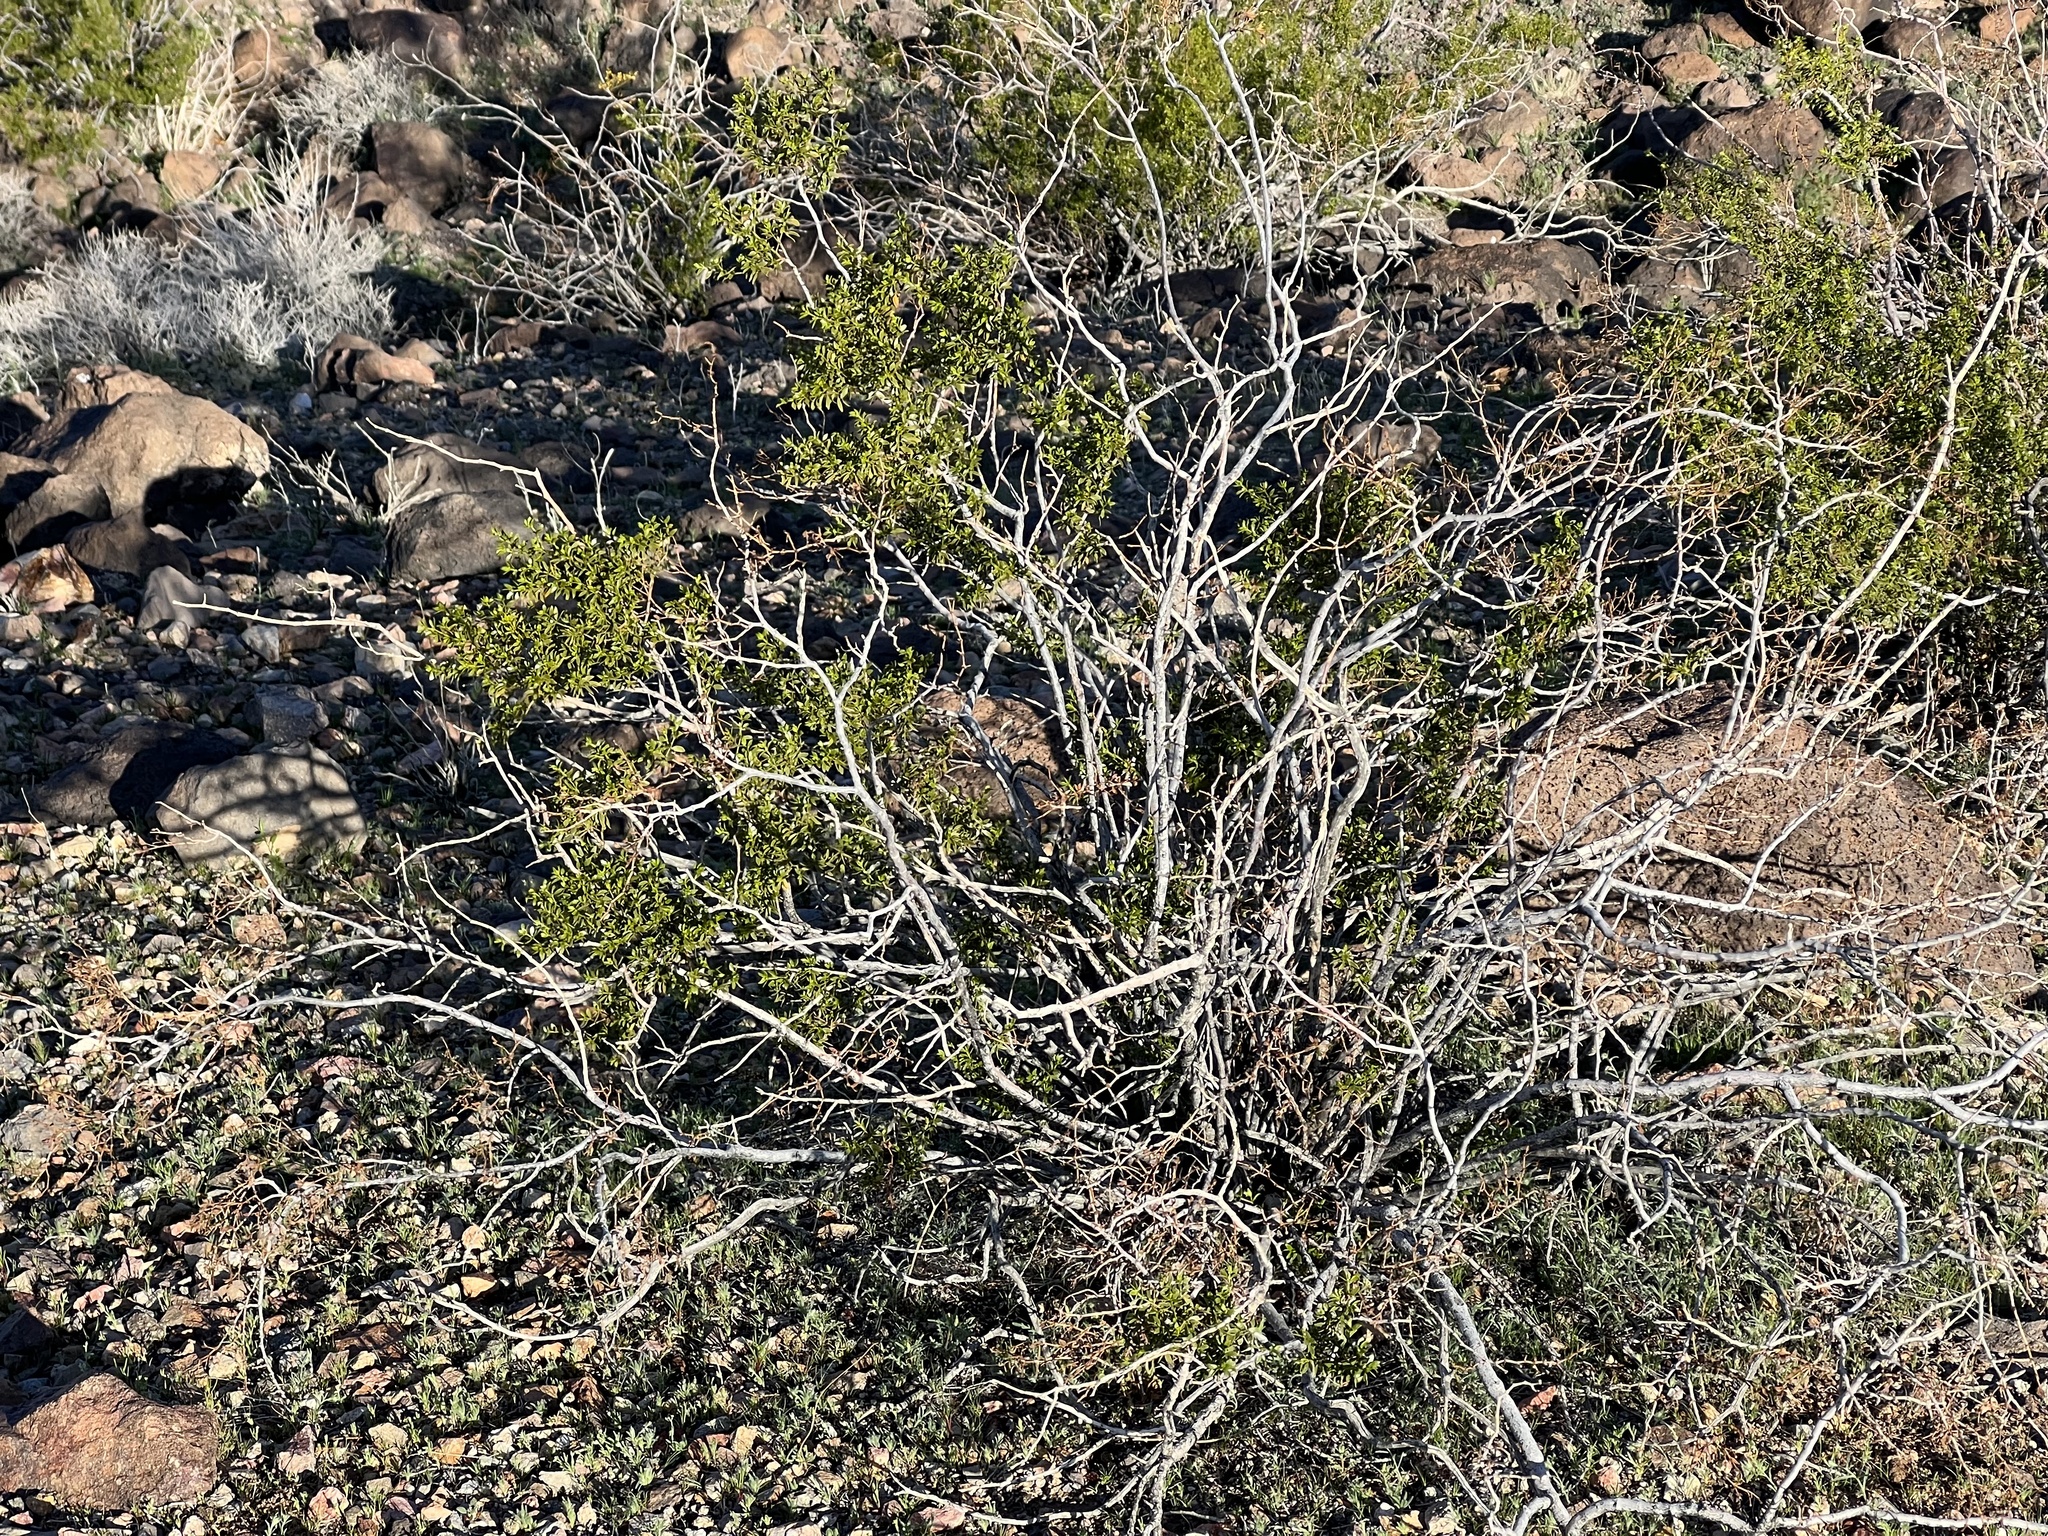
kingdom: Plantae
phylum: Tracheophyta
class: Magnoliopsida
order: Zygophyllales
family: Zygophyllaceae
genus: Larrea
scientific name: Larrea tridentata
